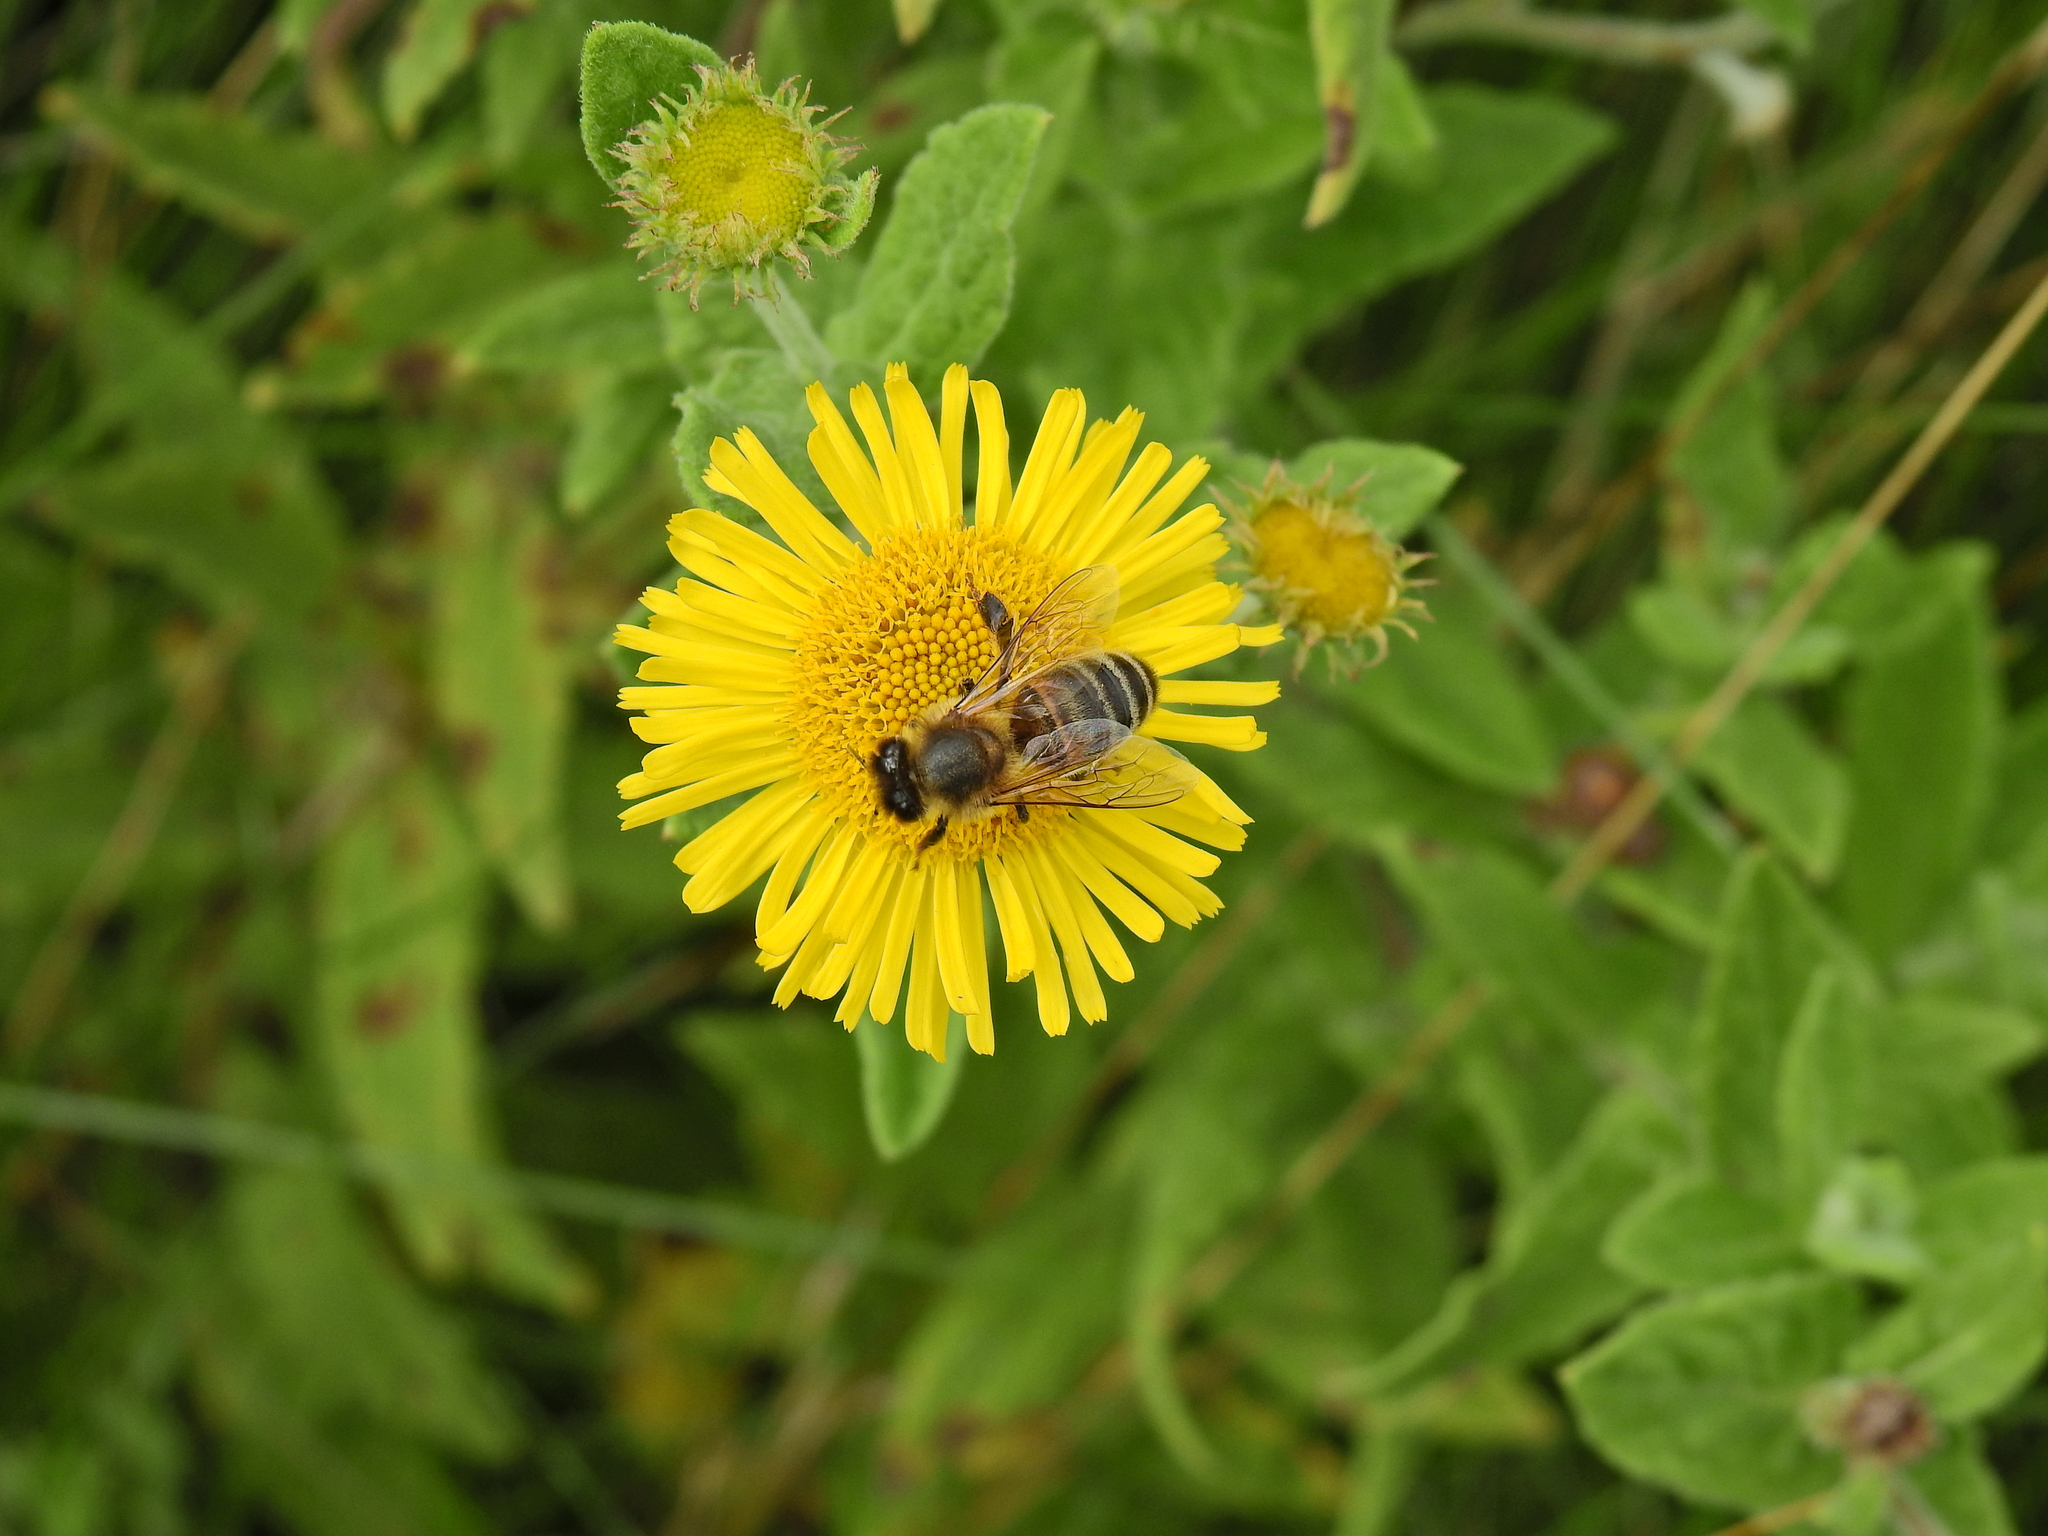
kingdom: Animalia
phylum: Arthropoda
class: Insecta
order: Hymenoptera
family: Apidae
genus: Apis
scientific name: Apis mellifera
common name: Honey bee
